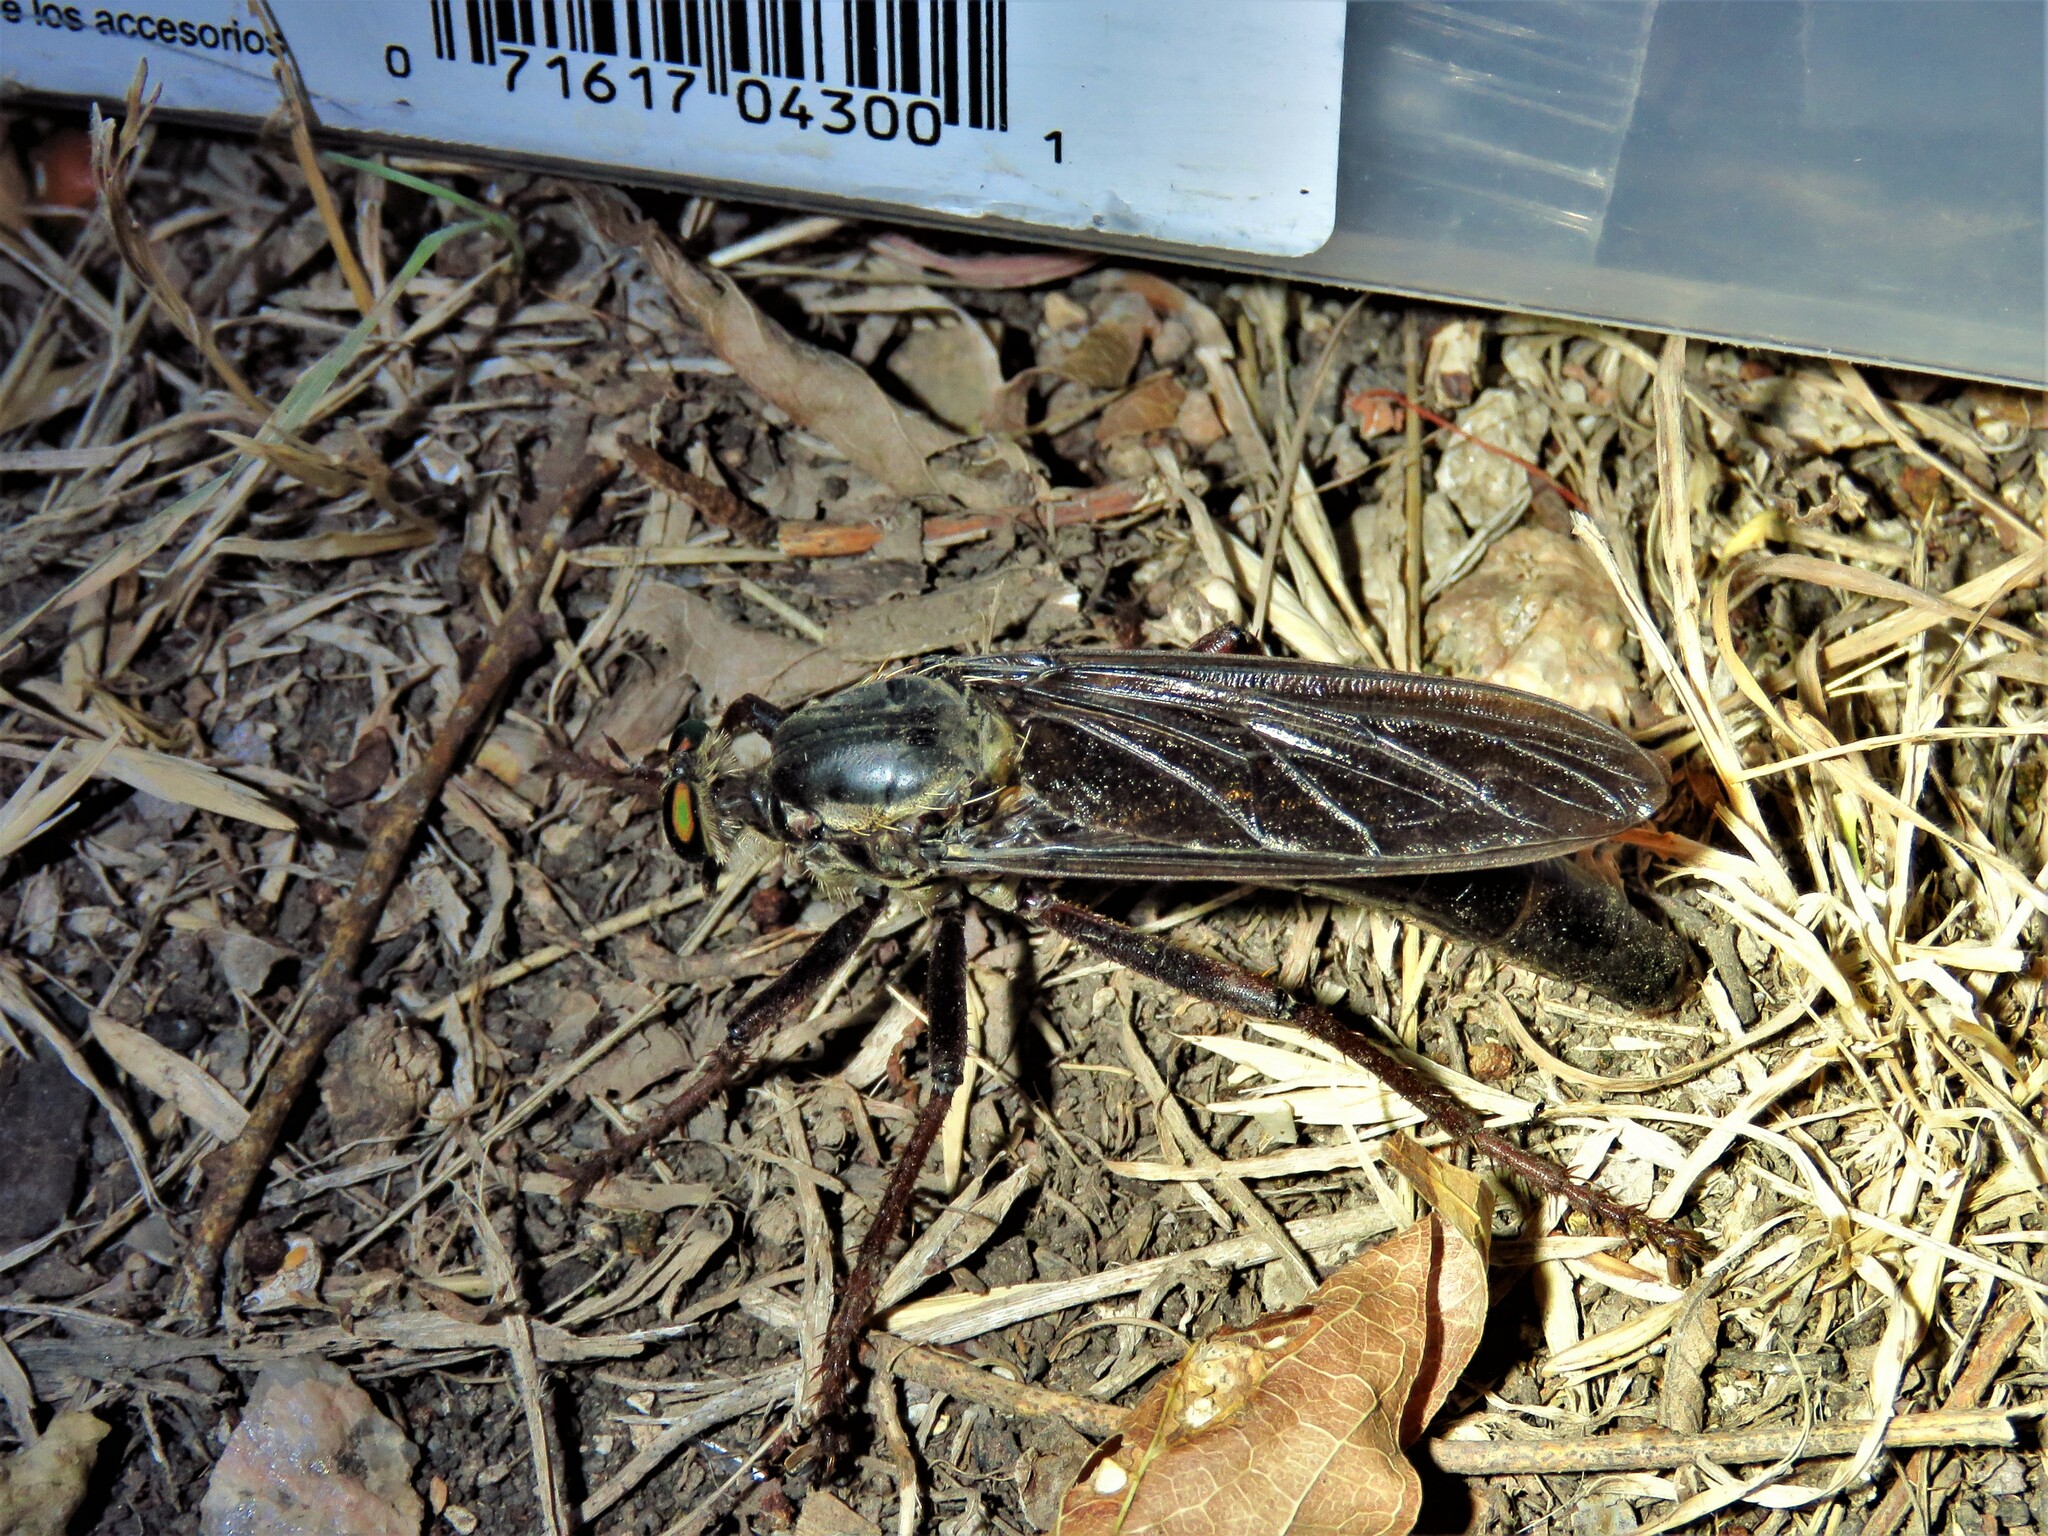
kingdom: Animalia
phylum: Arthropoda
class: Insecta
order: Diptera
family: Asilidae
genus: Microstylum
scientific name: Microstylum morosum
